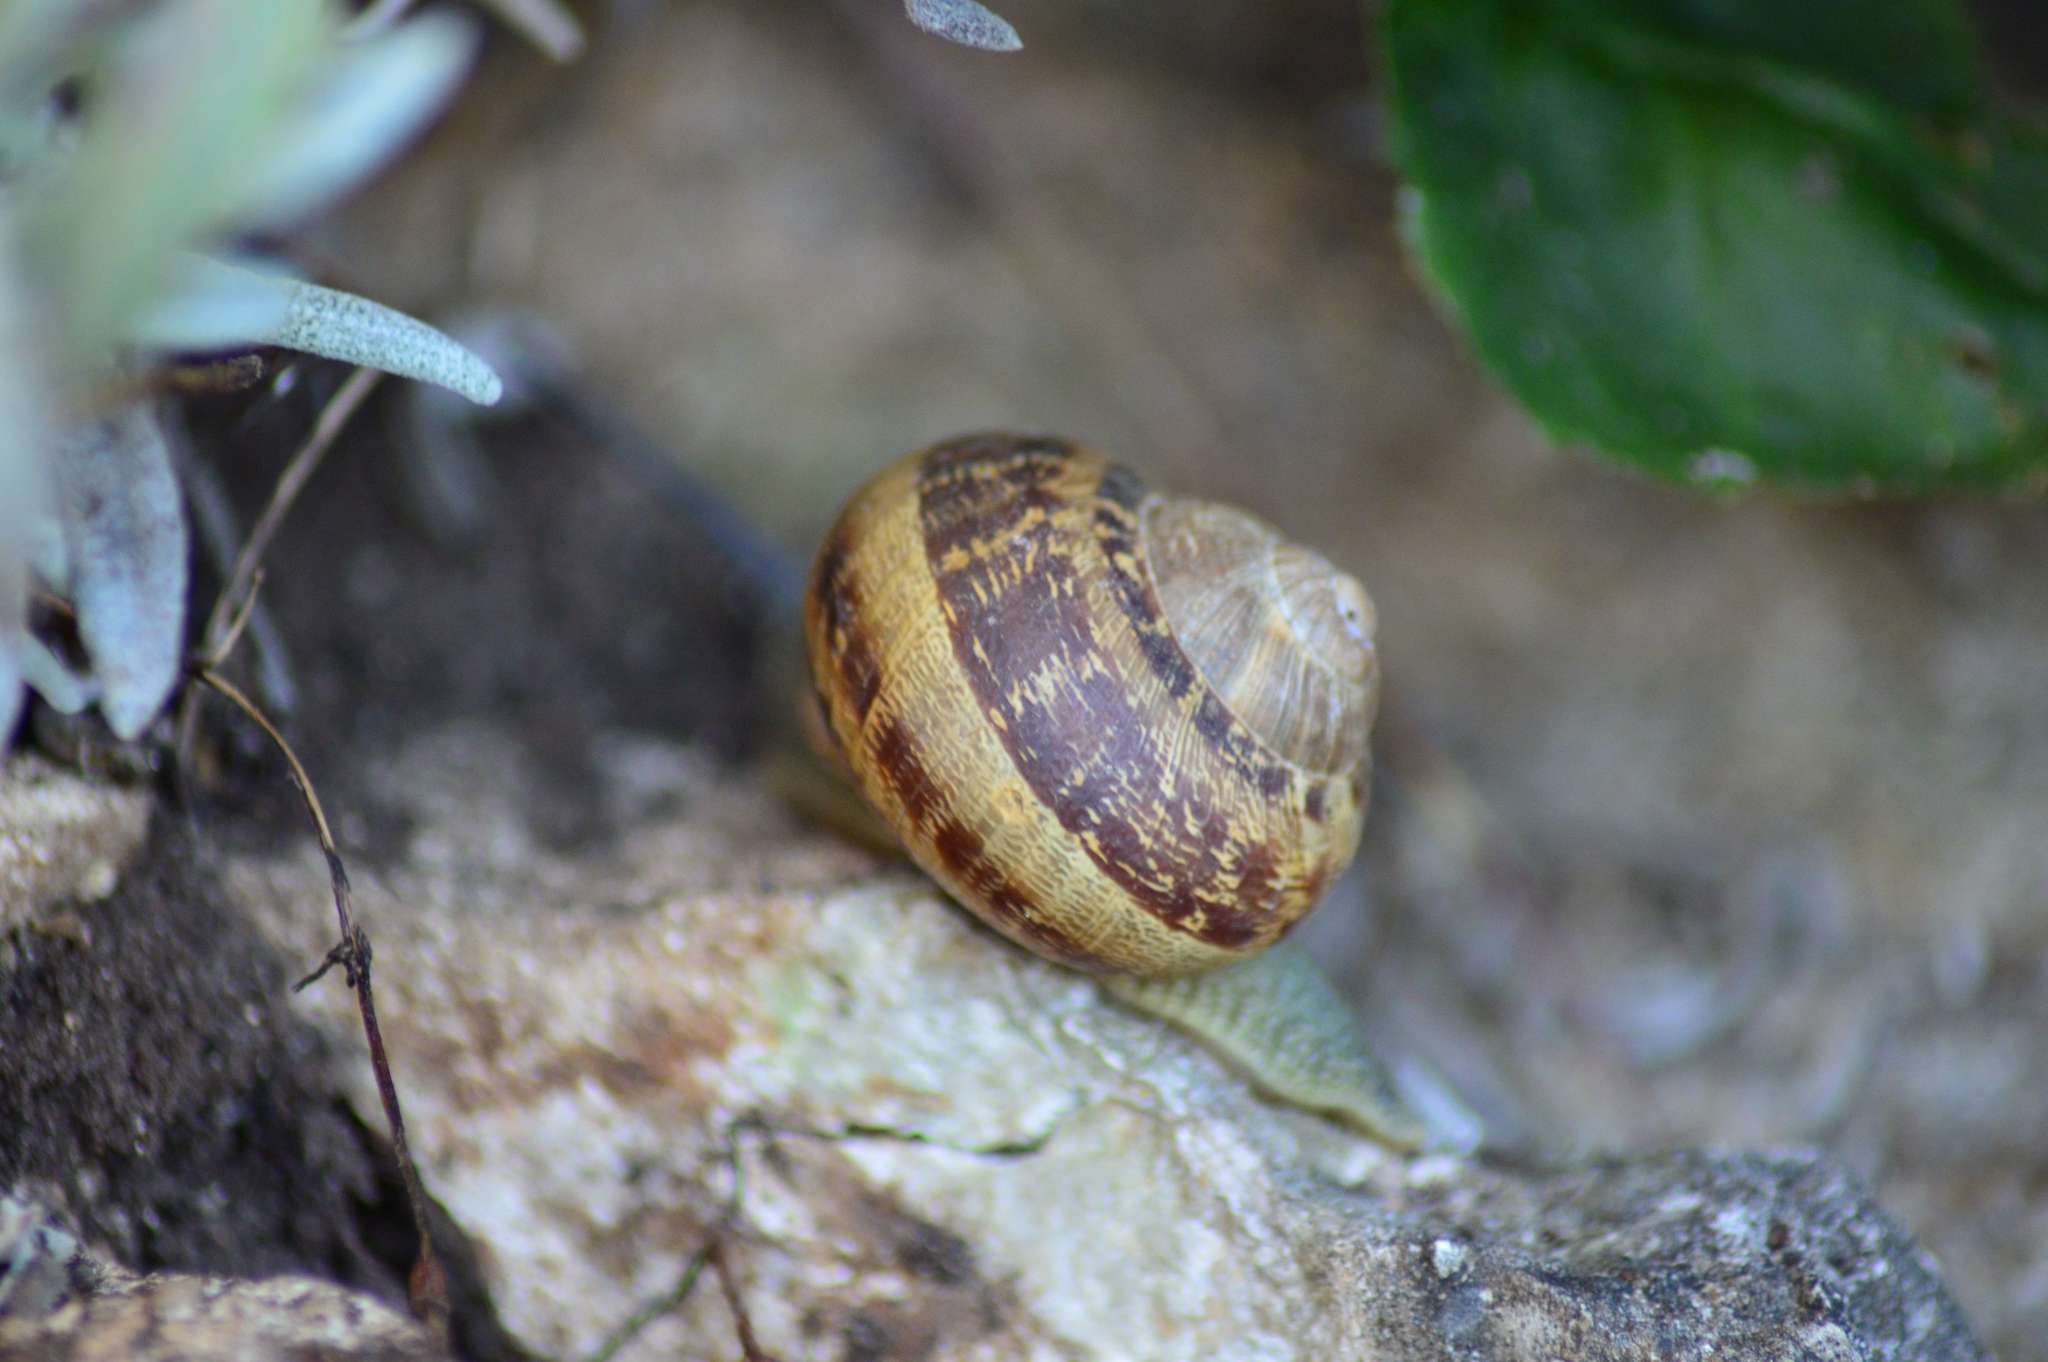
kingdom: Animalia
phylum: Mollusca
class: Gastropoda
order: Stylommatophora
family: Helicidae
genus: Cornu
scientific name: Cornu aspersum
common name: Brown garden snail
